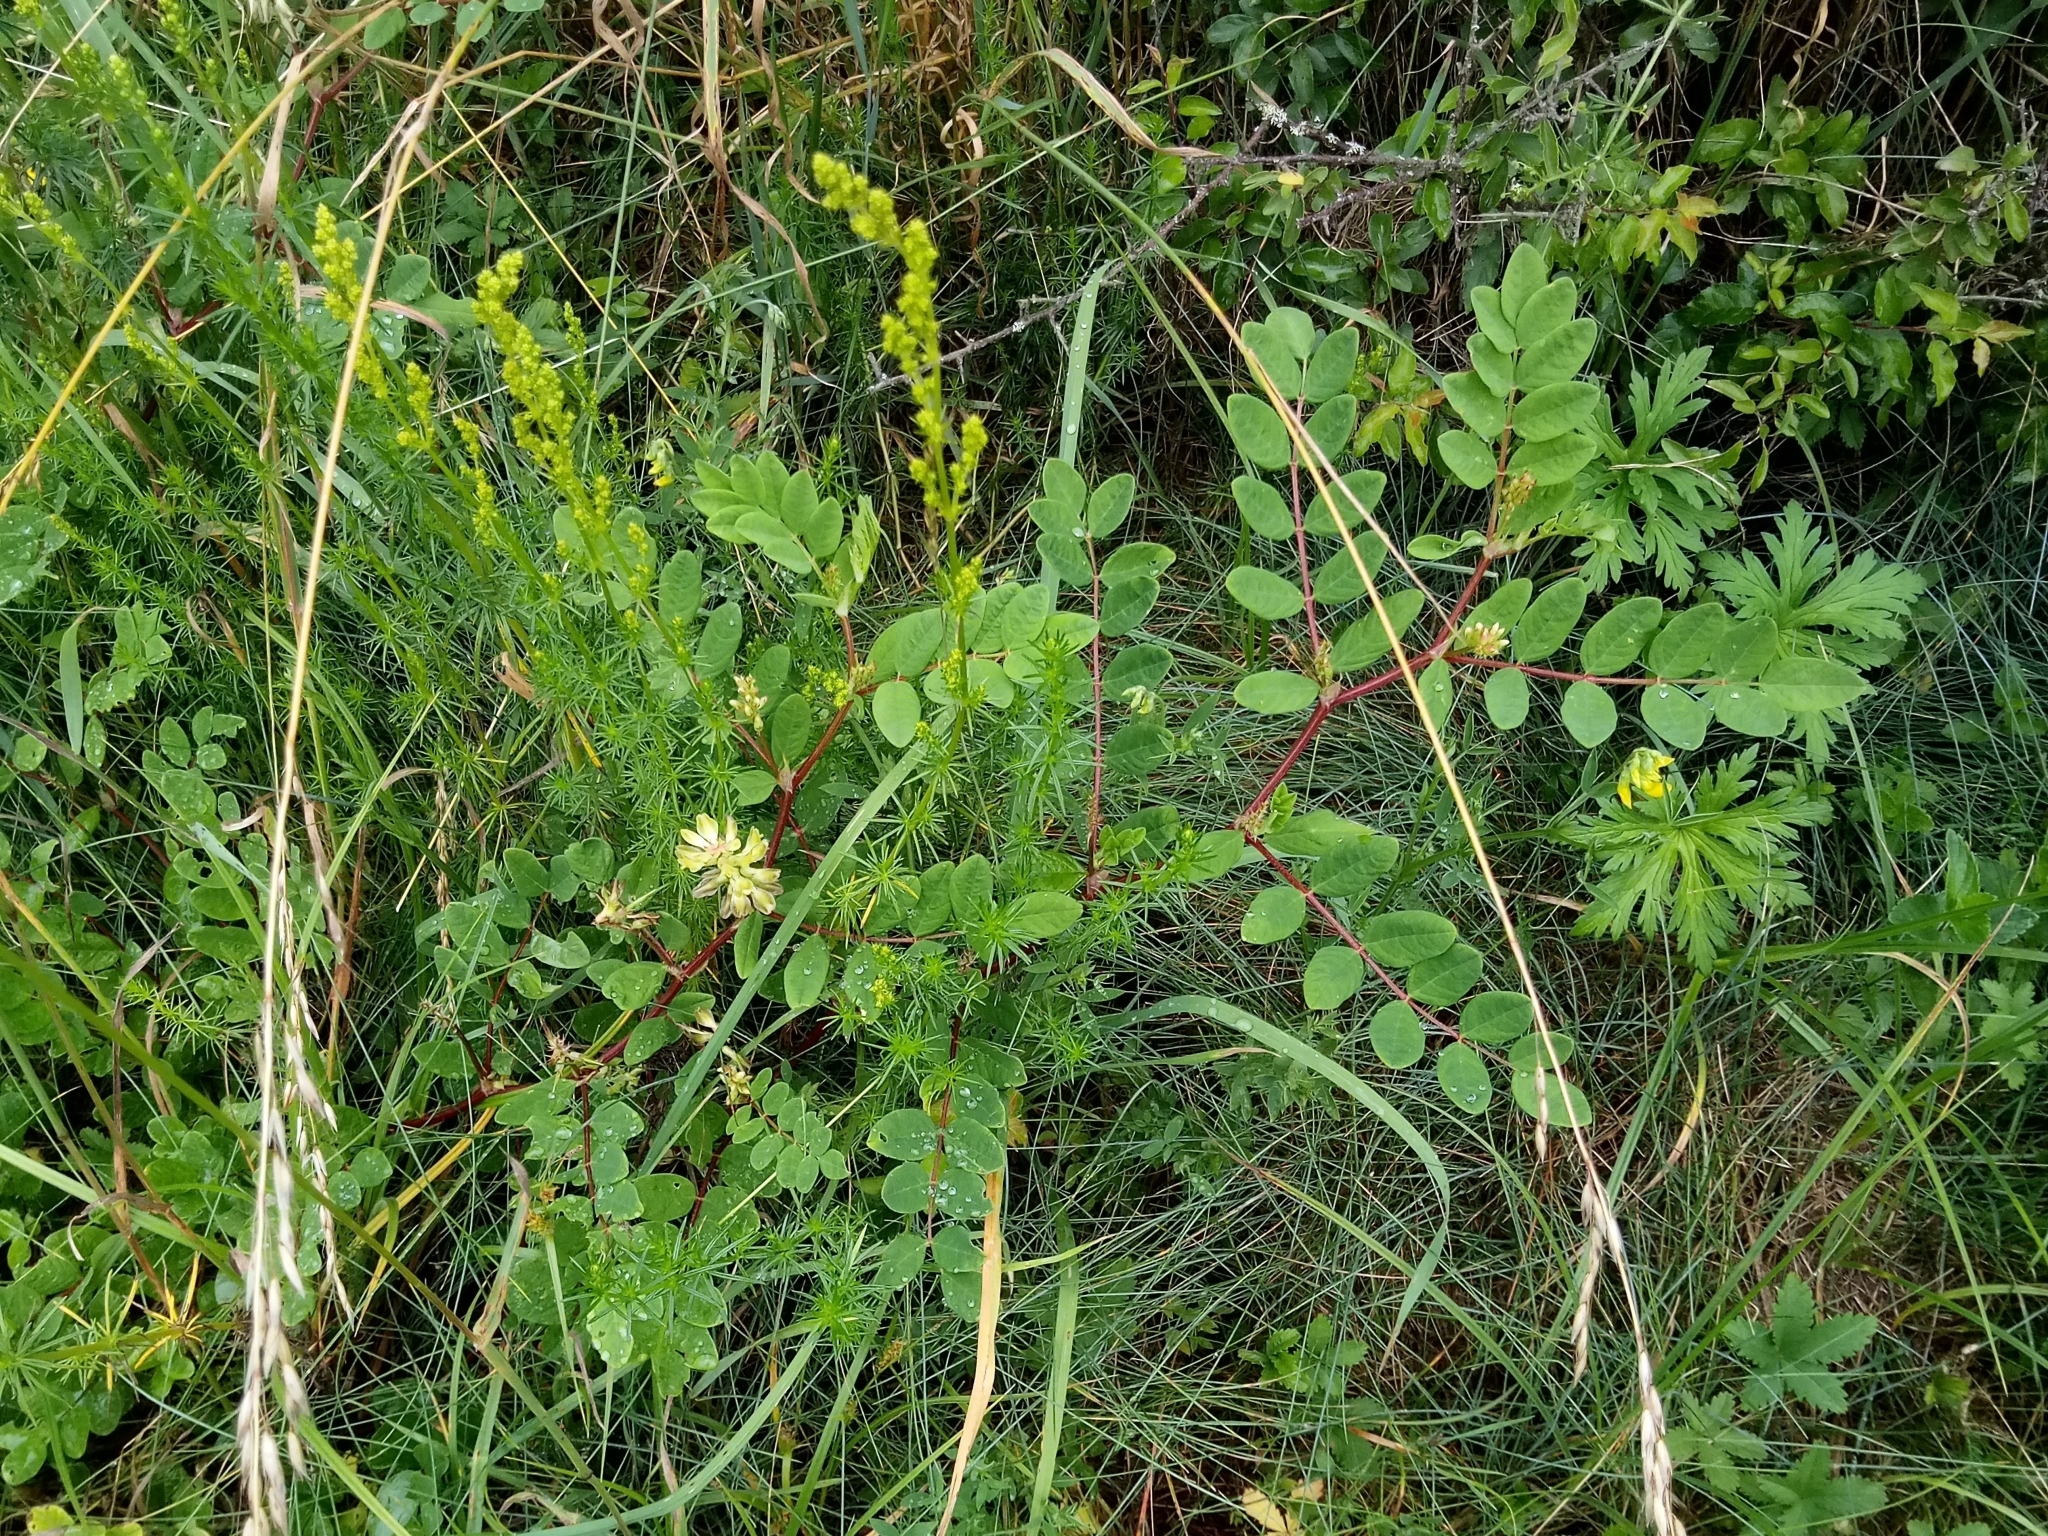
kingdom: Plantae
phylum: Tracheophyta
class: Magnoliopsida
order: Fabales
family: Fabaceae
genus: Astragalus
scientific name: Astragalus glycyphyllos
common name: Wild liquorice
